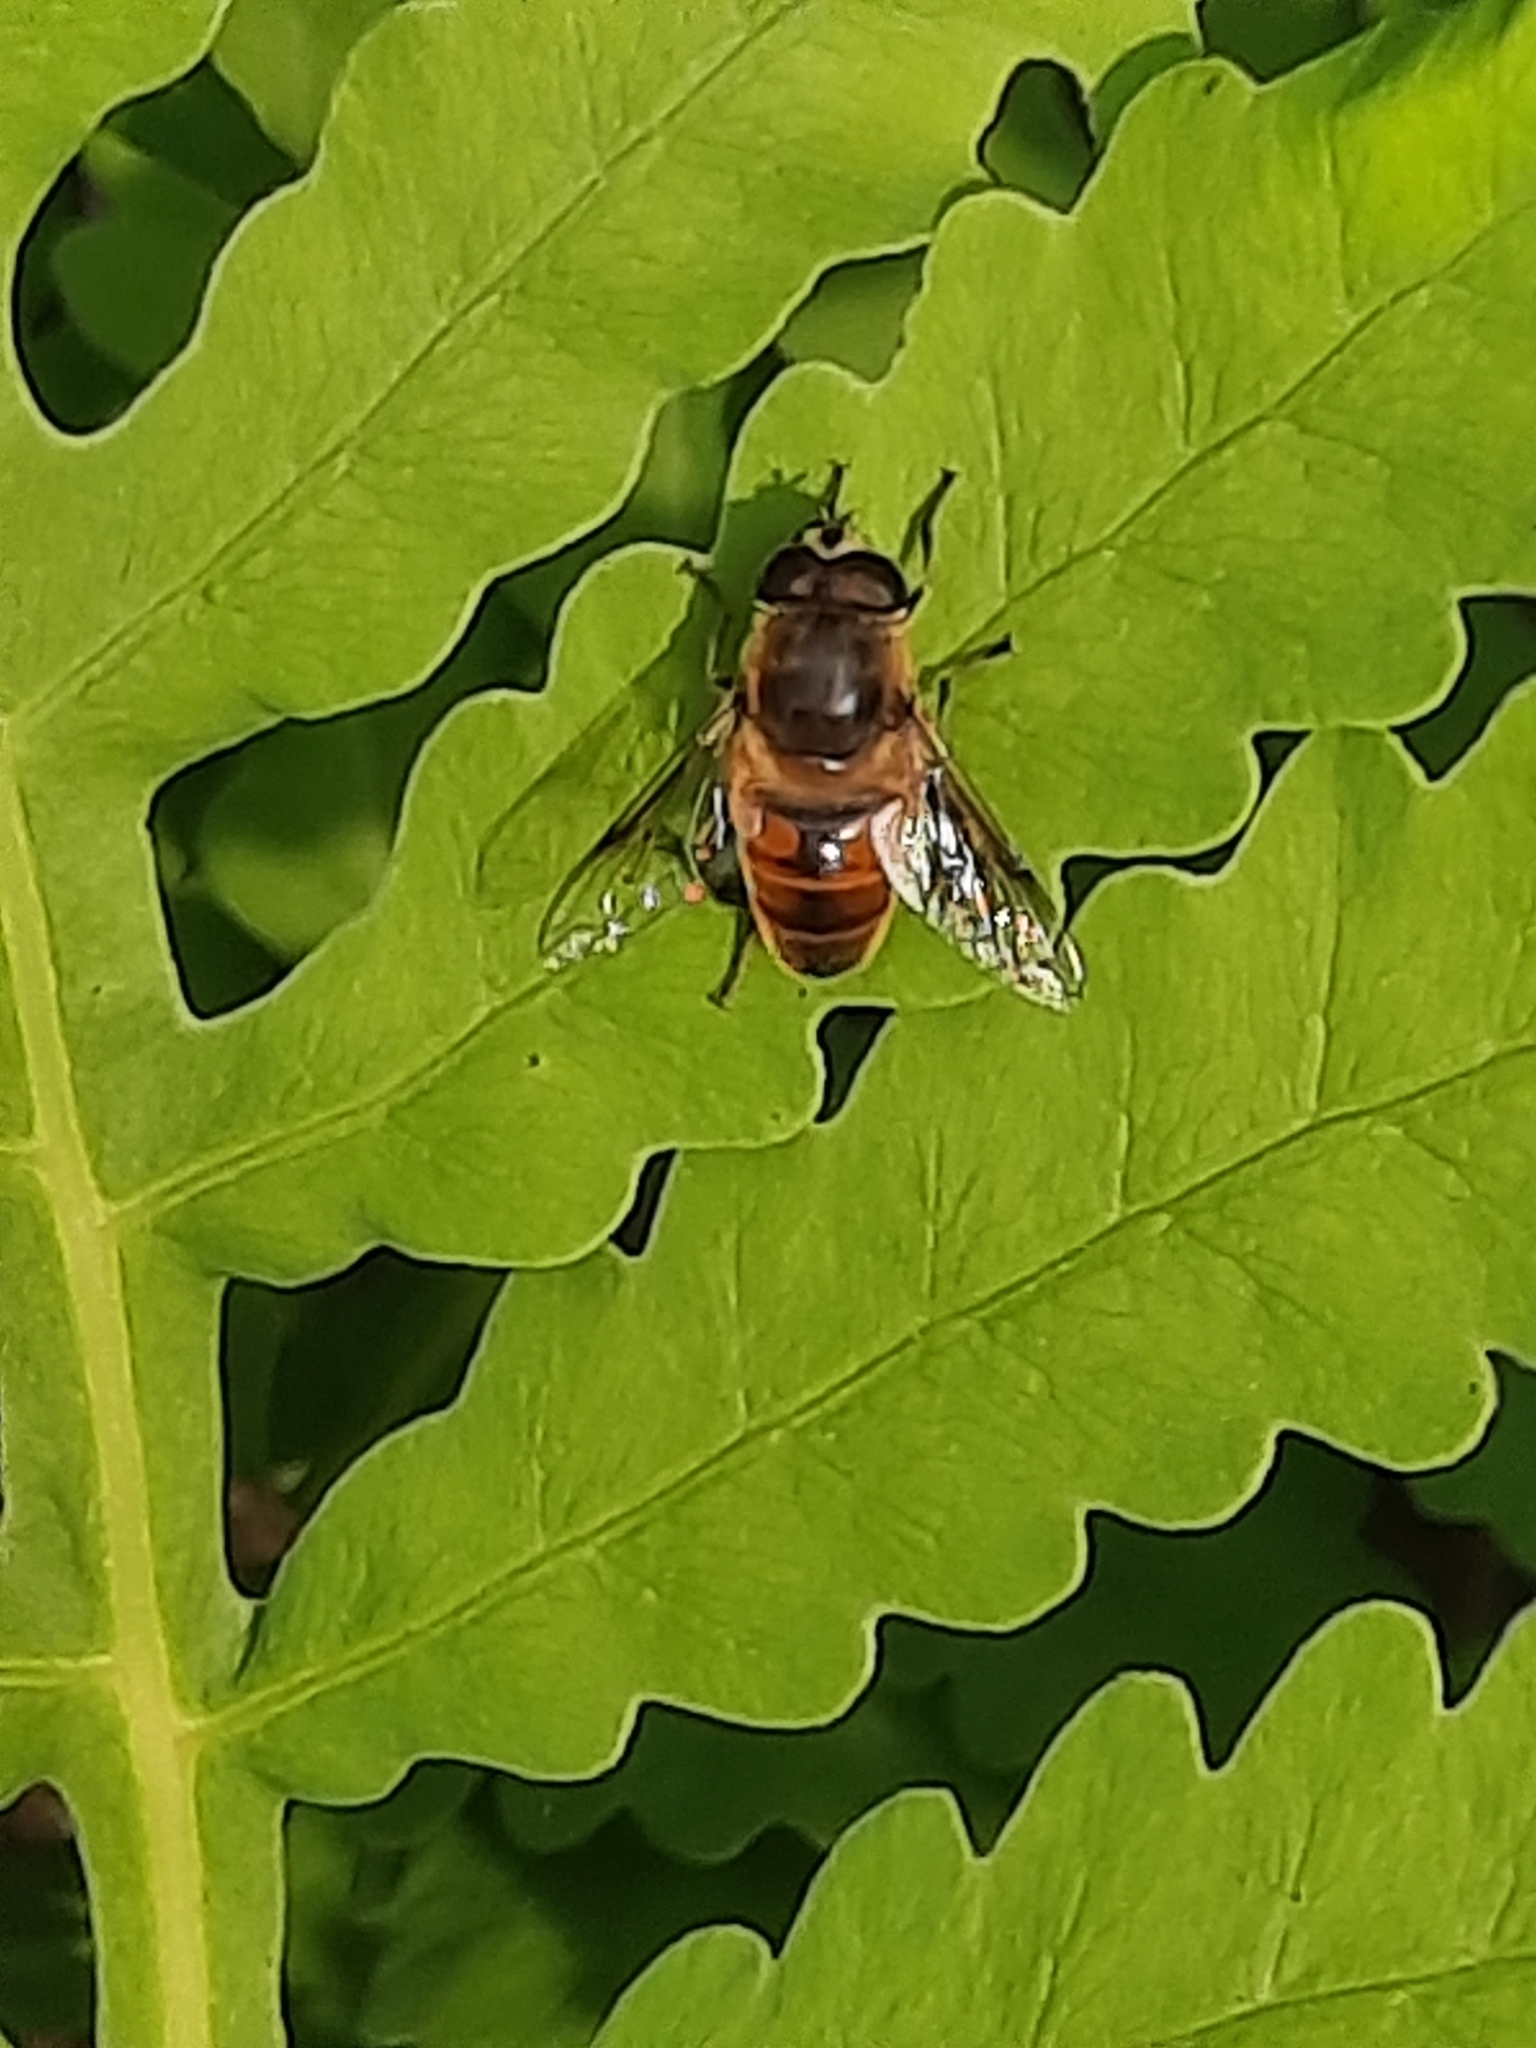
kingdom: Animalia
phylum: Arthropoda
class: Insecta
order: Diptera
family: Syrphidae
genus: Eristalis
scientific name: Eristalis tenax
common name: Drone fly
